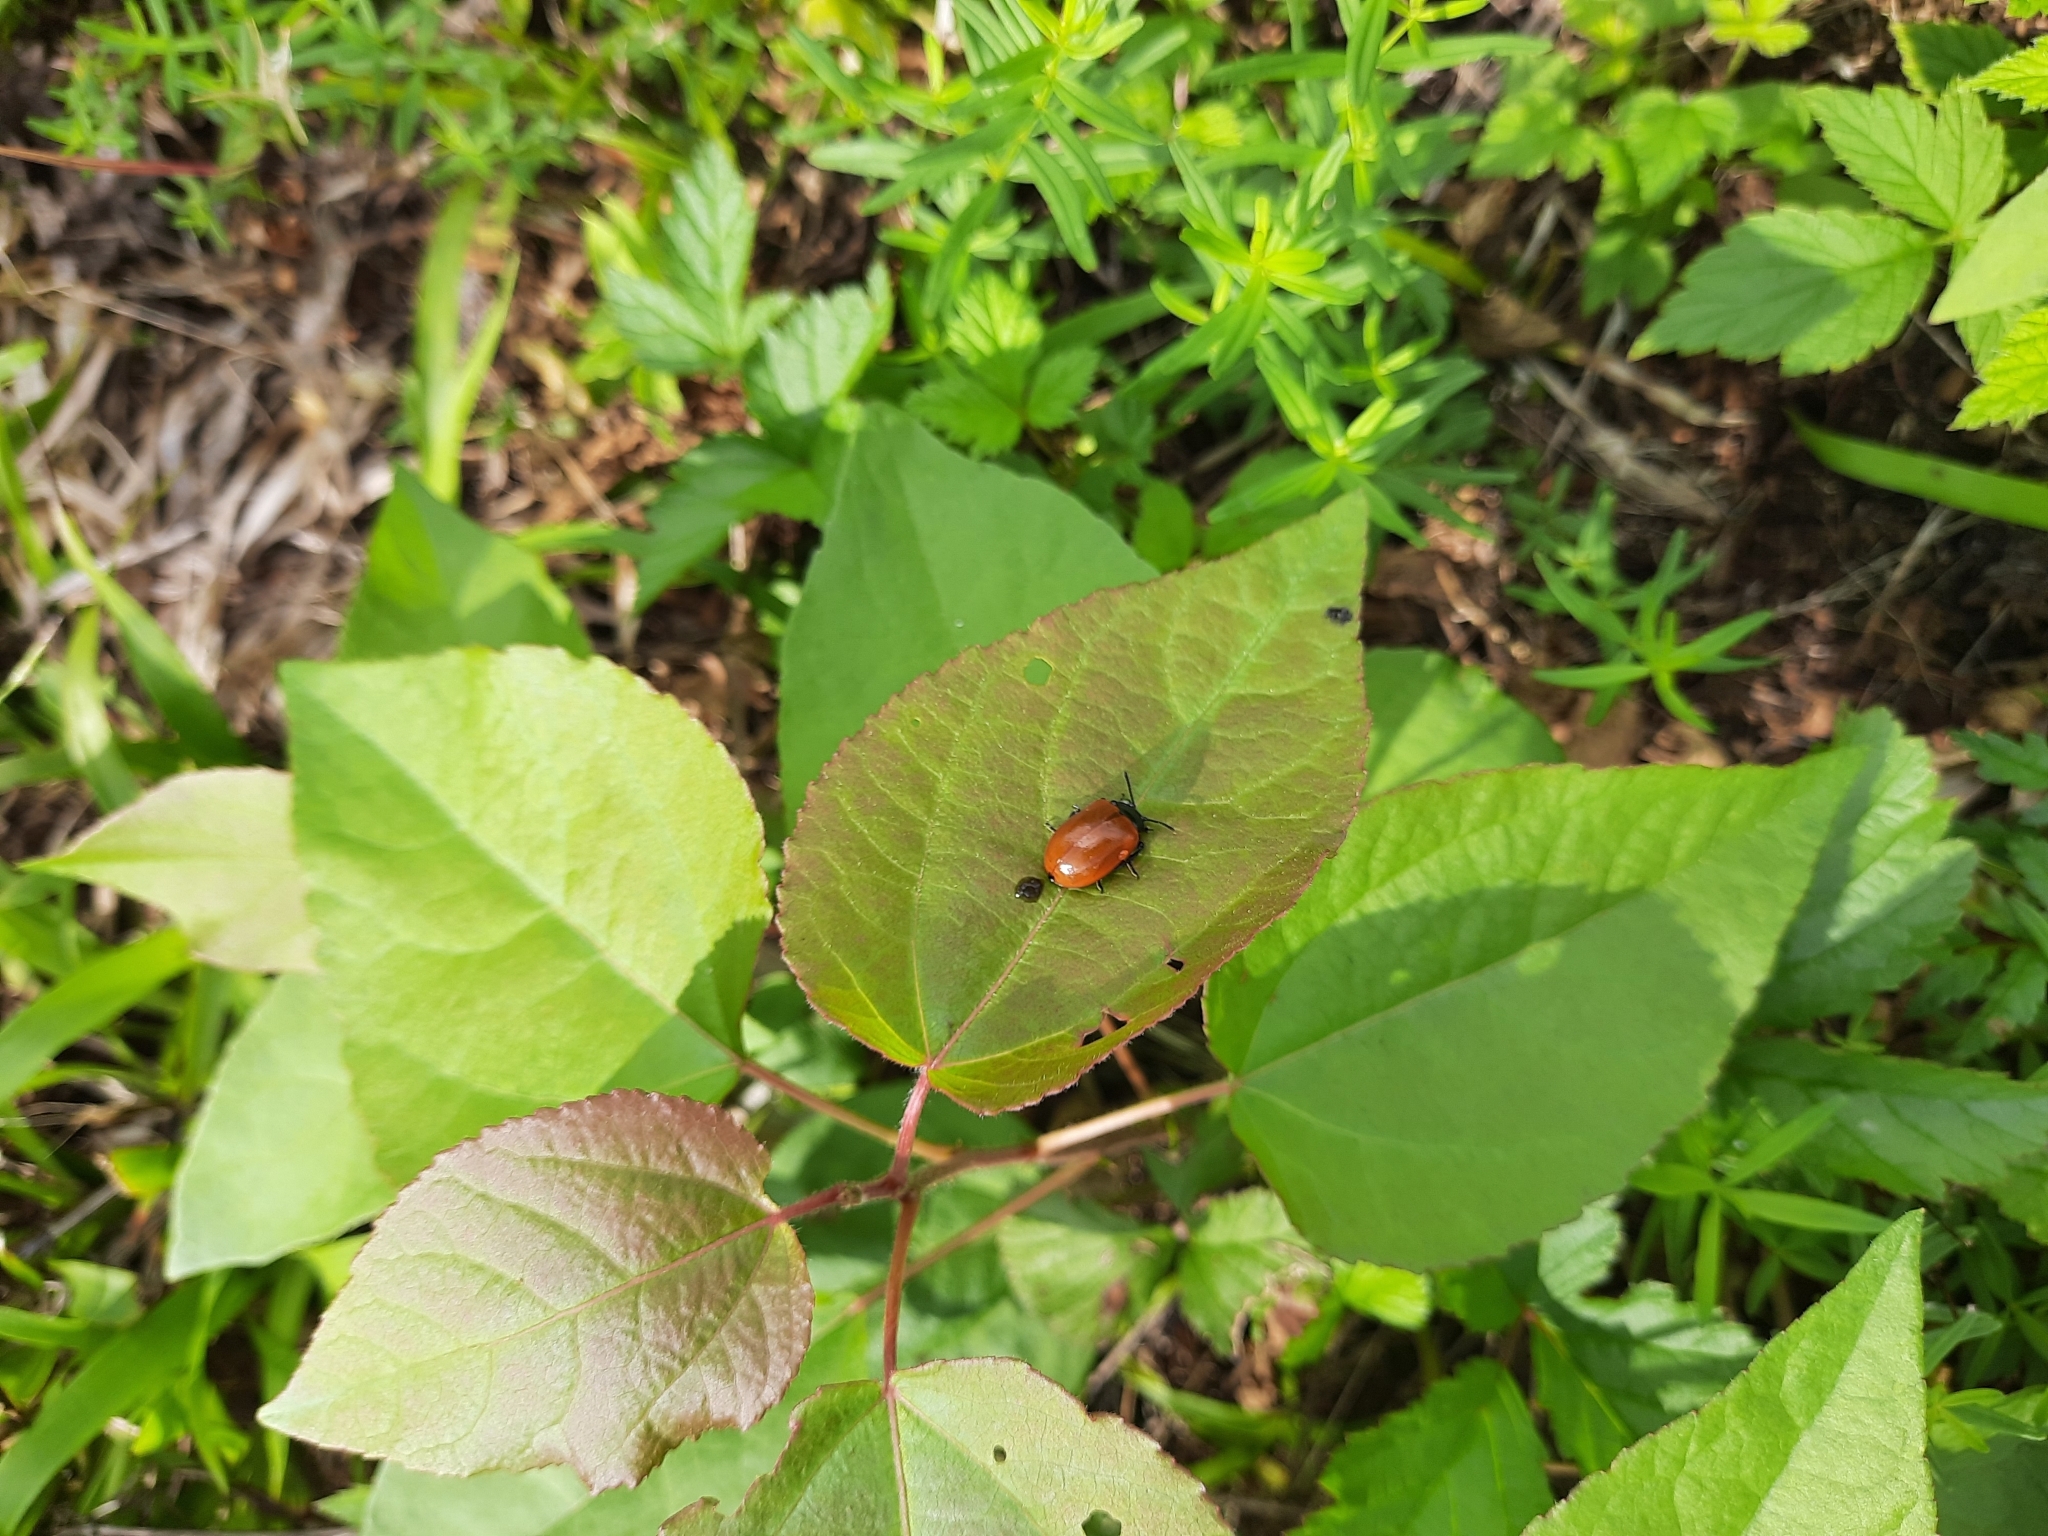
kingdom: Animalia
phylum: Arthropoda
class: Insecta
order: Coleoptera
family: Chrysomelidae
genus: Chrysomela
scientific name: Chrysomela populi
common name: Red poplar leaf beetle
